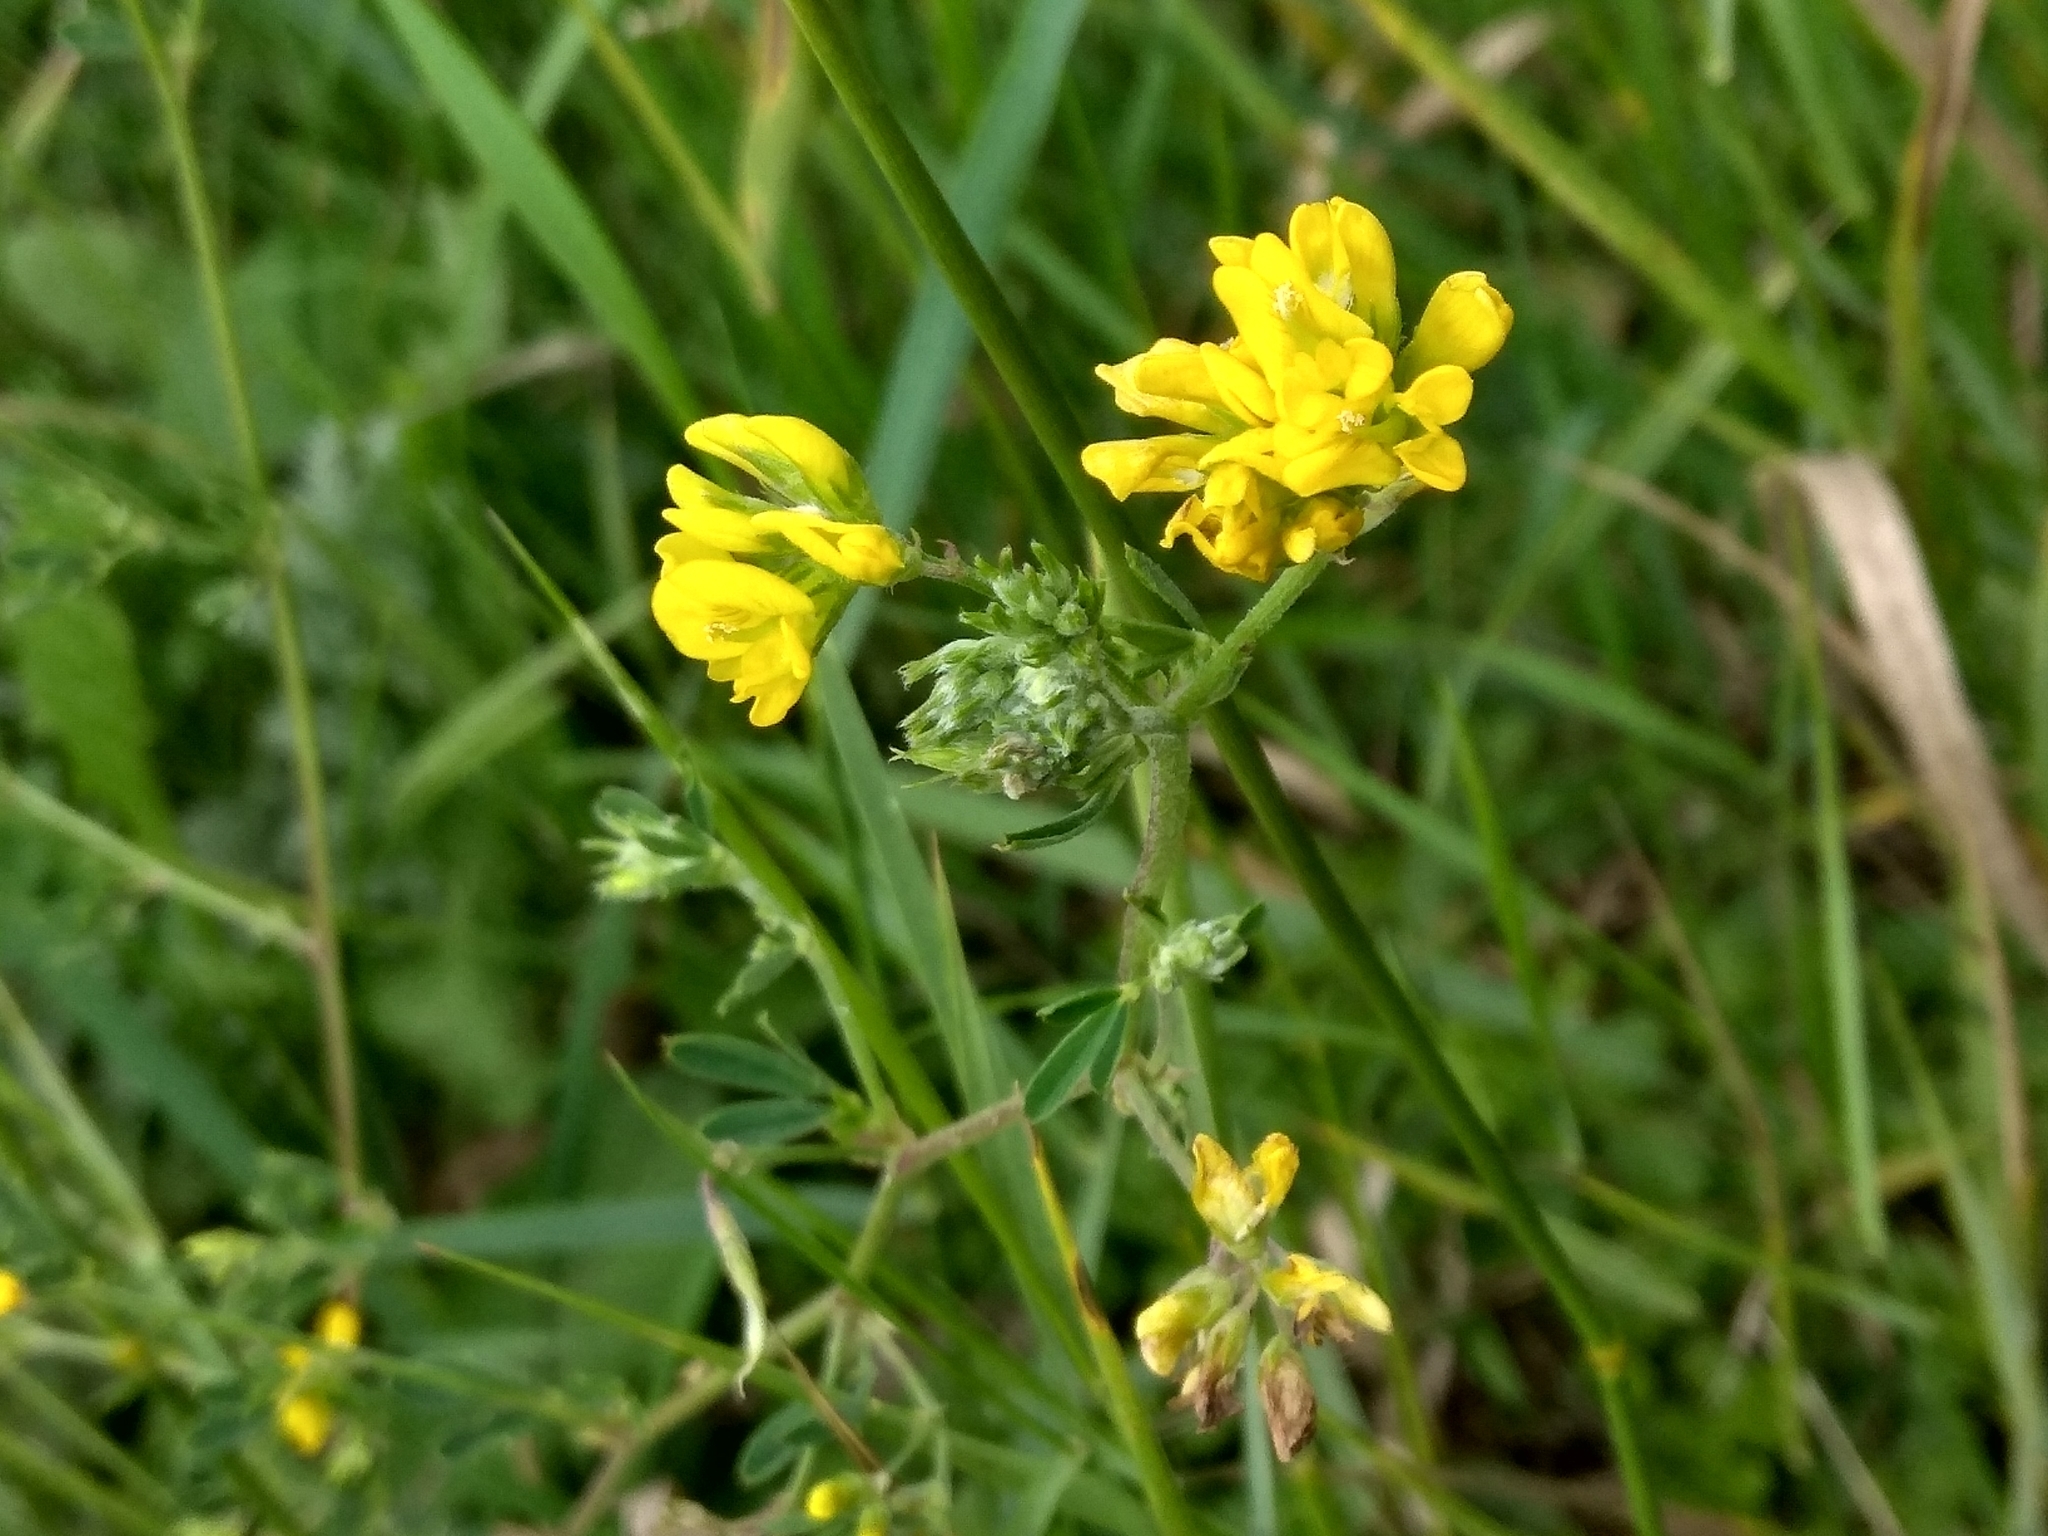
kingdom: Plantae
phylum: Tracheophyta
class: Magnoliopsida
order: Fabales
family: Fabaceae
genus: Medicago
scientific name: Medicago falcata
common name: Sickle medick
